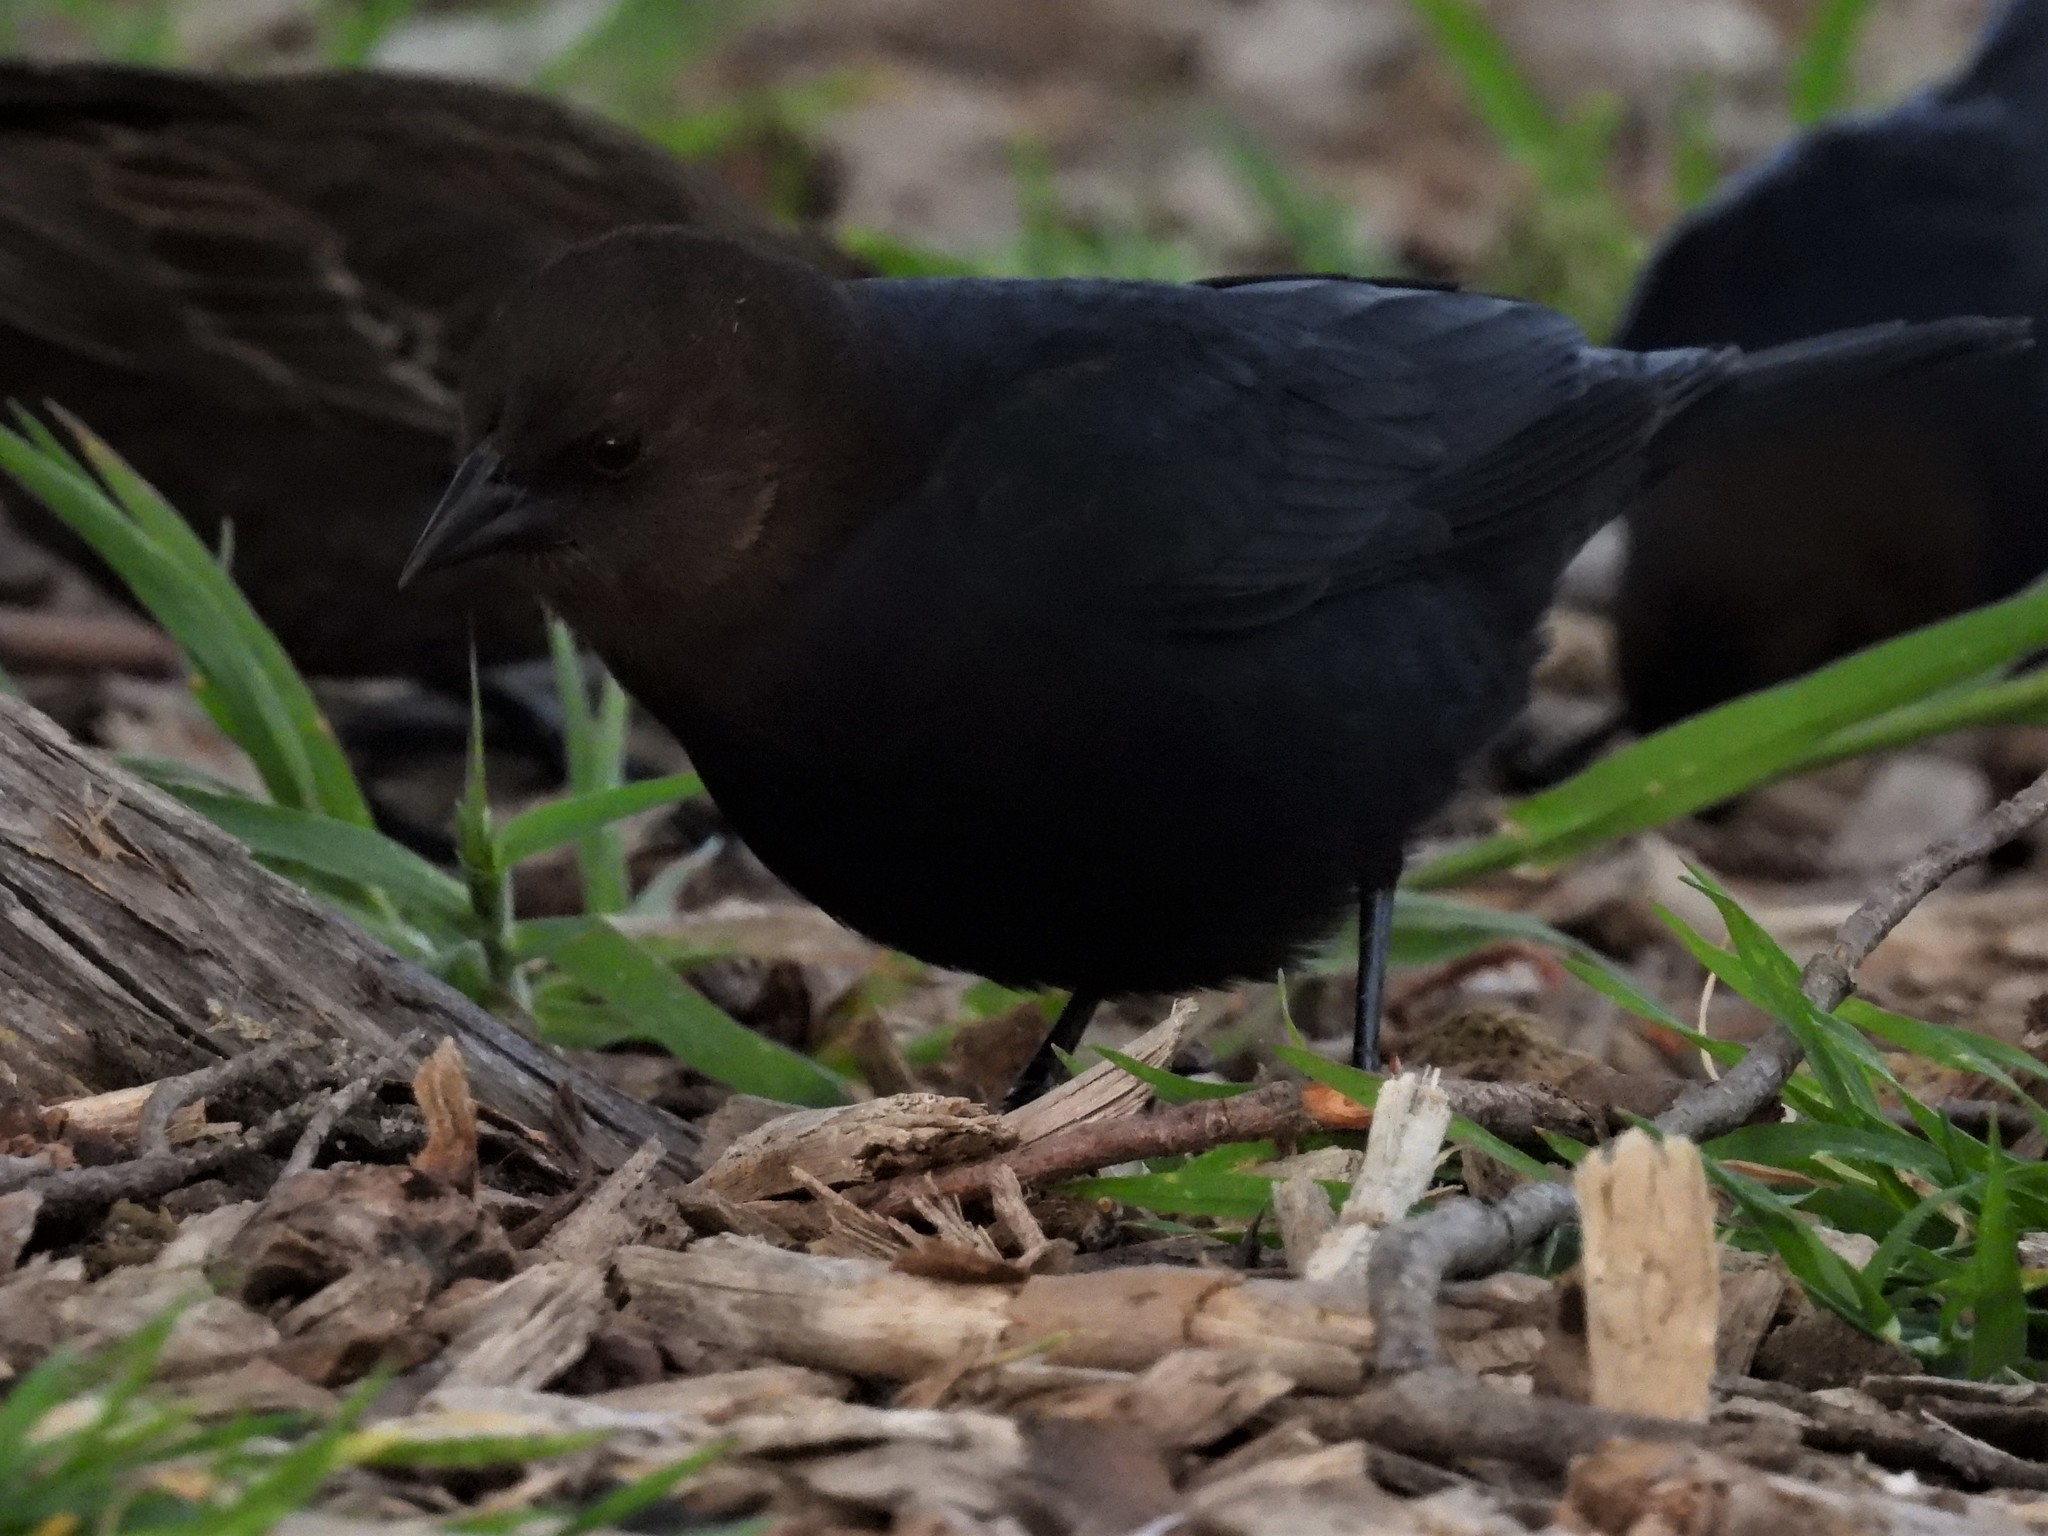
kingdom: Animalia
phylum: Chordata
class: Aves
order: Passeriformes
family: Icteridae
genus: Molothrus
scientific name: Molothrus ater
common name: Brown-headed cowbird
